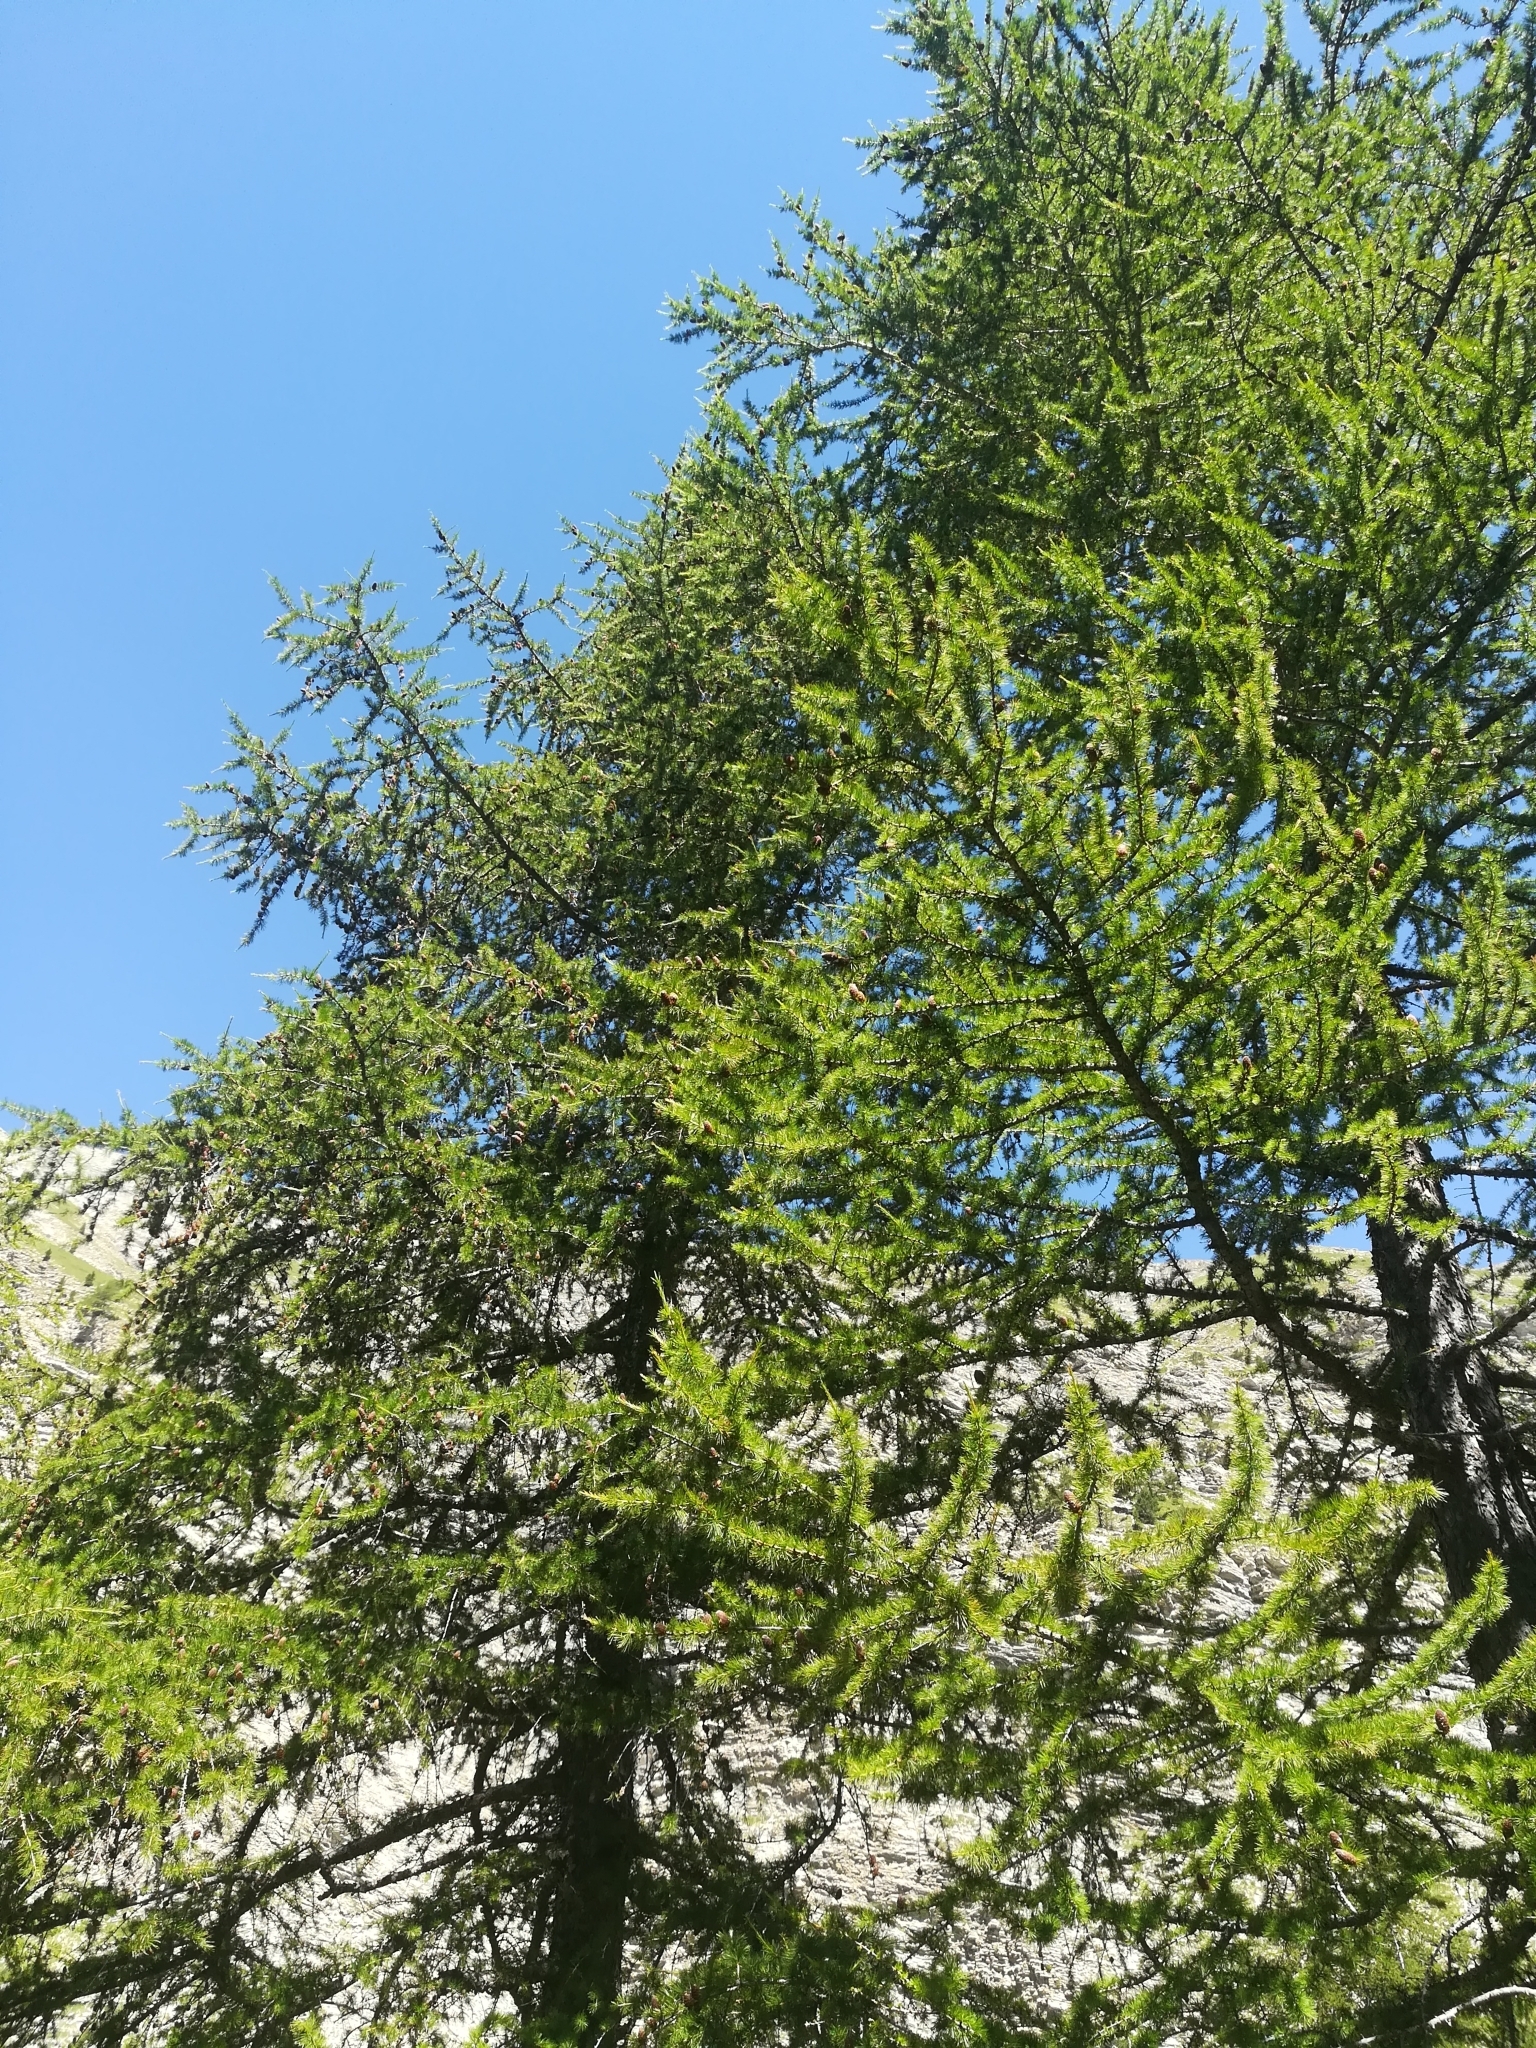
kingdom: Plantae
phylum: Tracheophyta
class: Pinopsida
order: Pinales
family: Pinaceae
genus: Larix
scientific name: Larix decidua
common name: European larch
